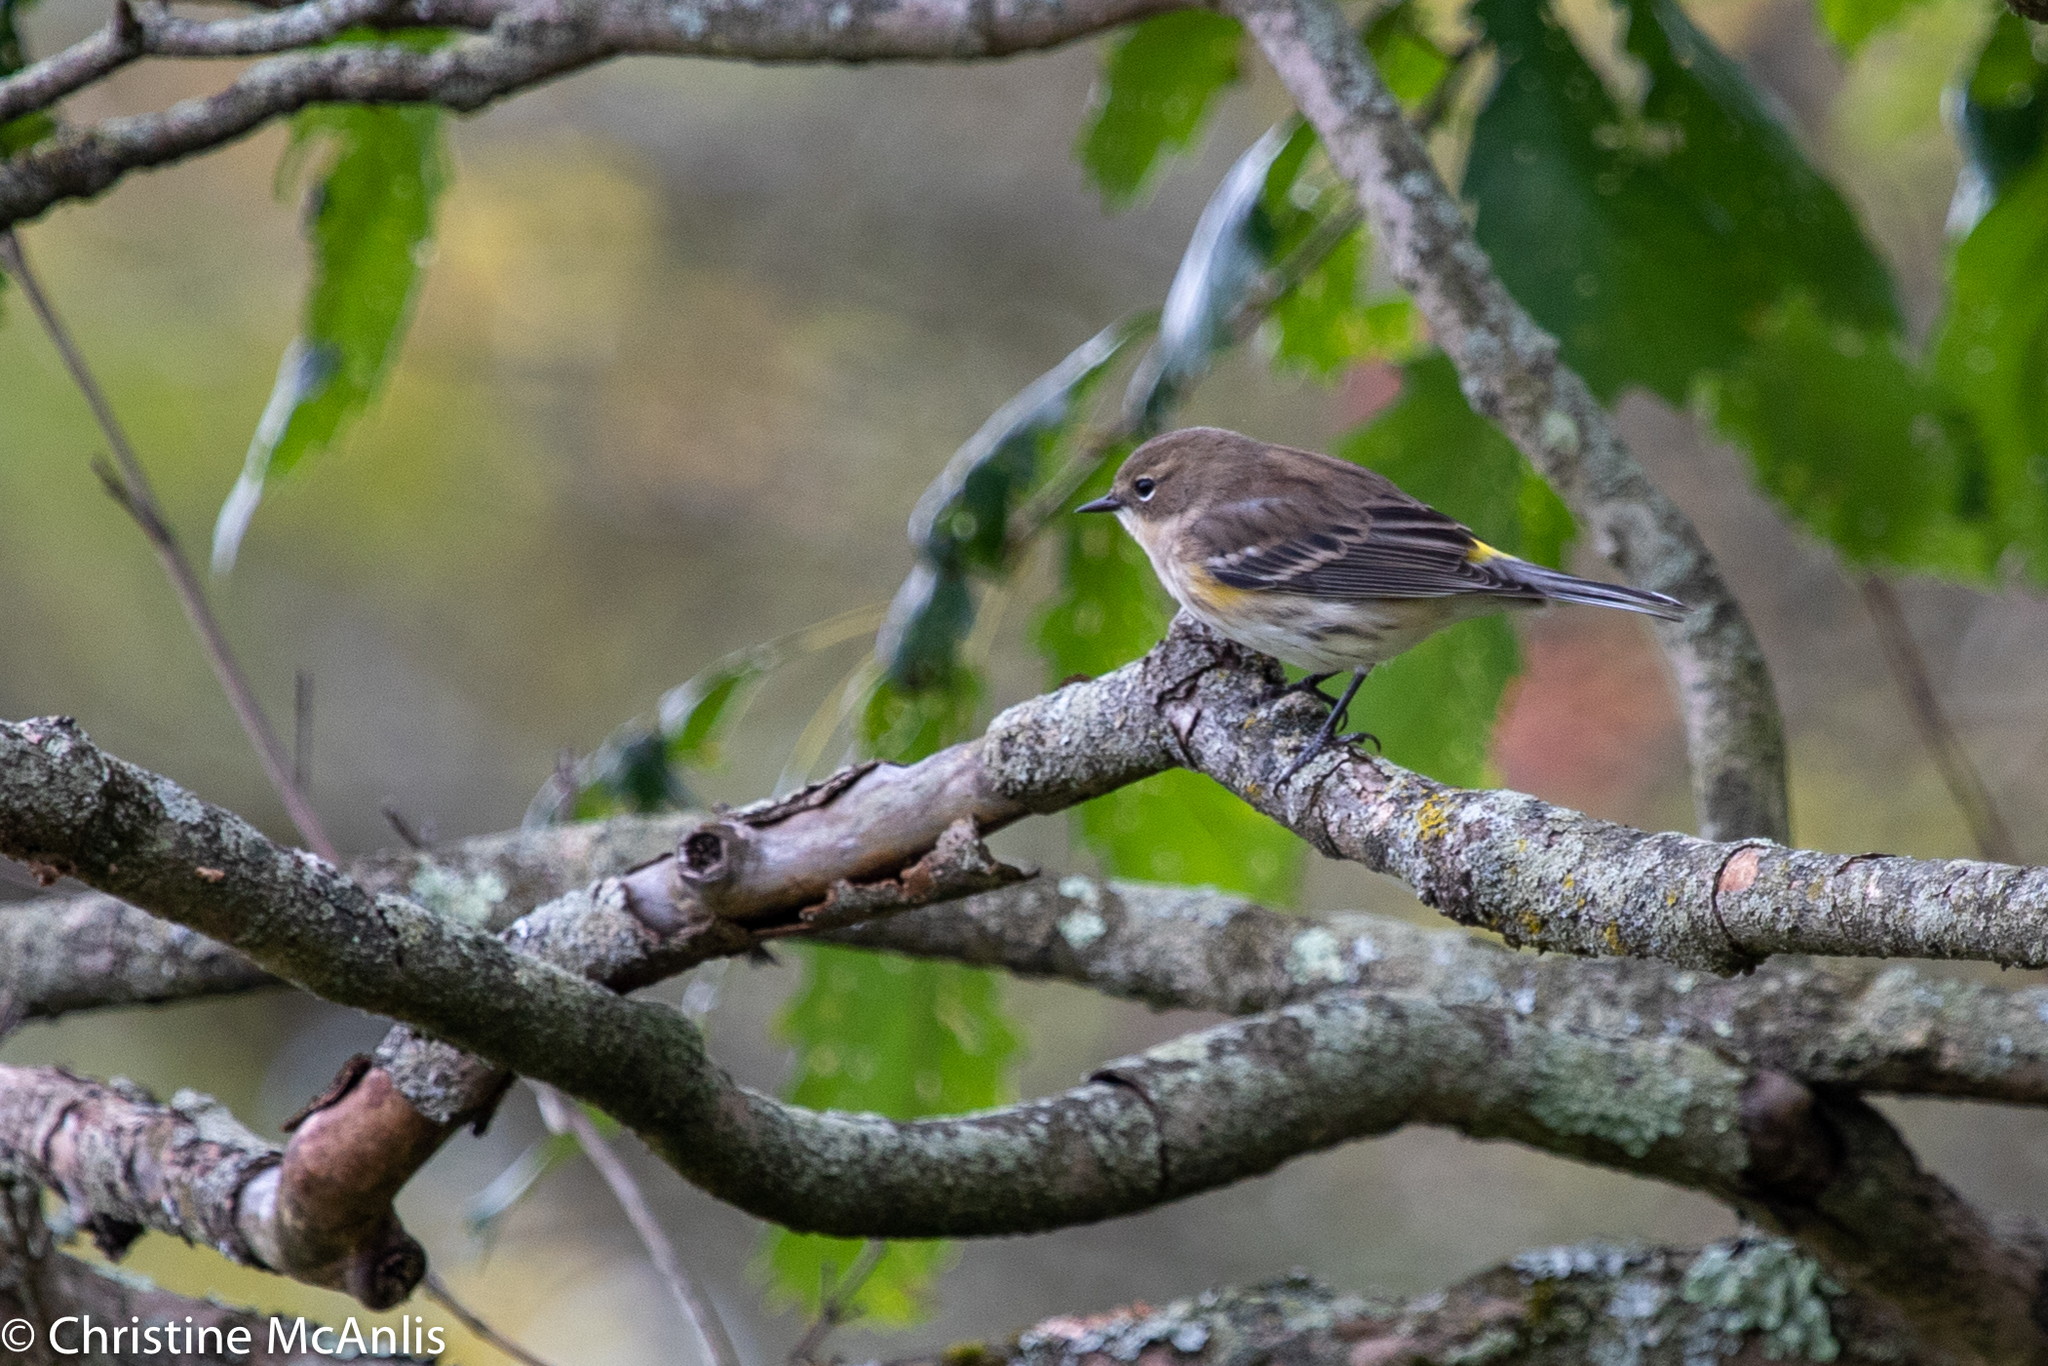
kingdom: Animalia
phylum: Chordata
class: Aves
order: Passeriformes
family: Parulidae
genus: Setophaga
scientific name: Setophaga coronata
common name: Myrtle warbler
